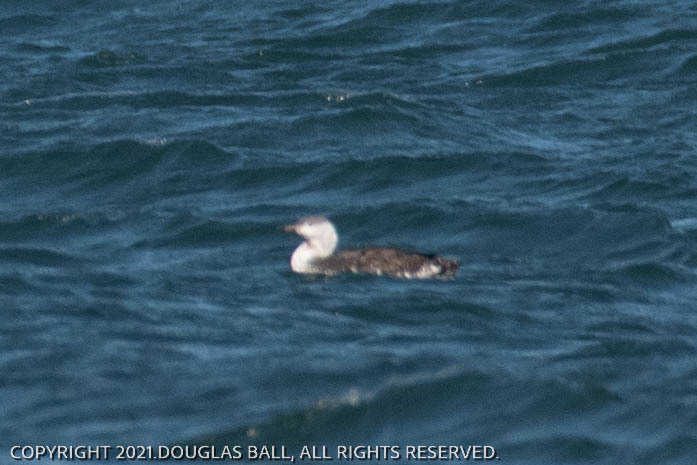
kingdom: Animalia
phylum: Chordata
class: Aves
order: Gaviiformes
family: Gaviidae
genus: Gavia
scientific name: Gavia stellata
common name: Red-throated loon
